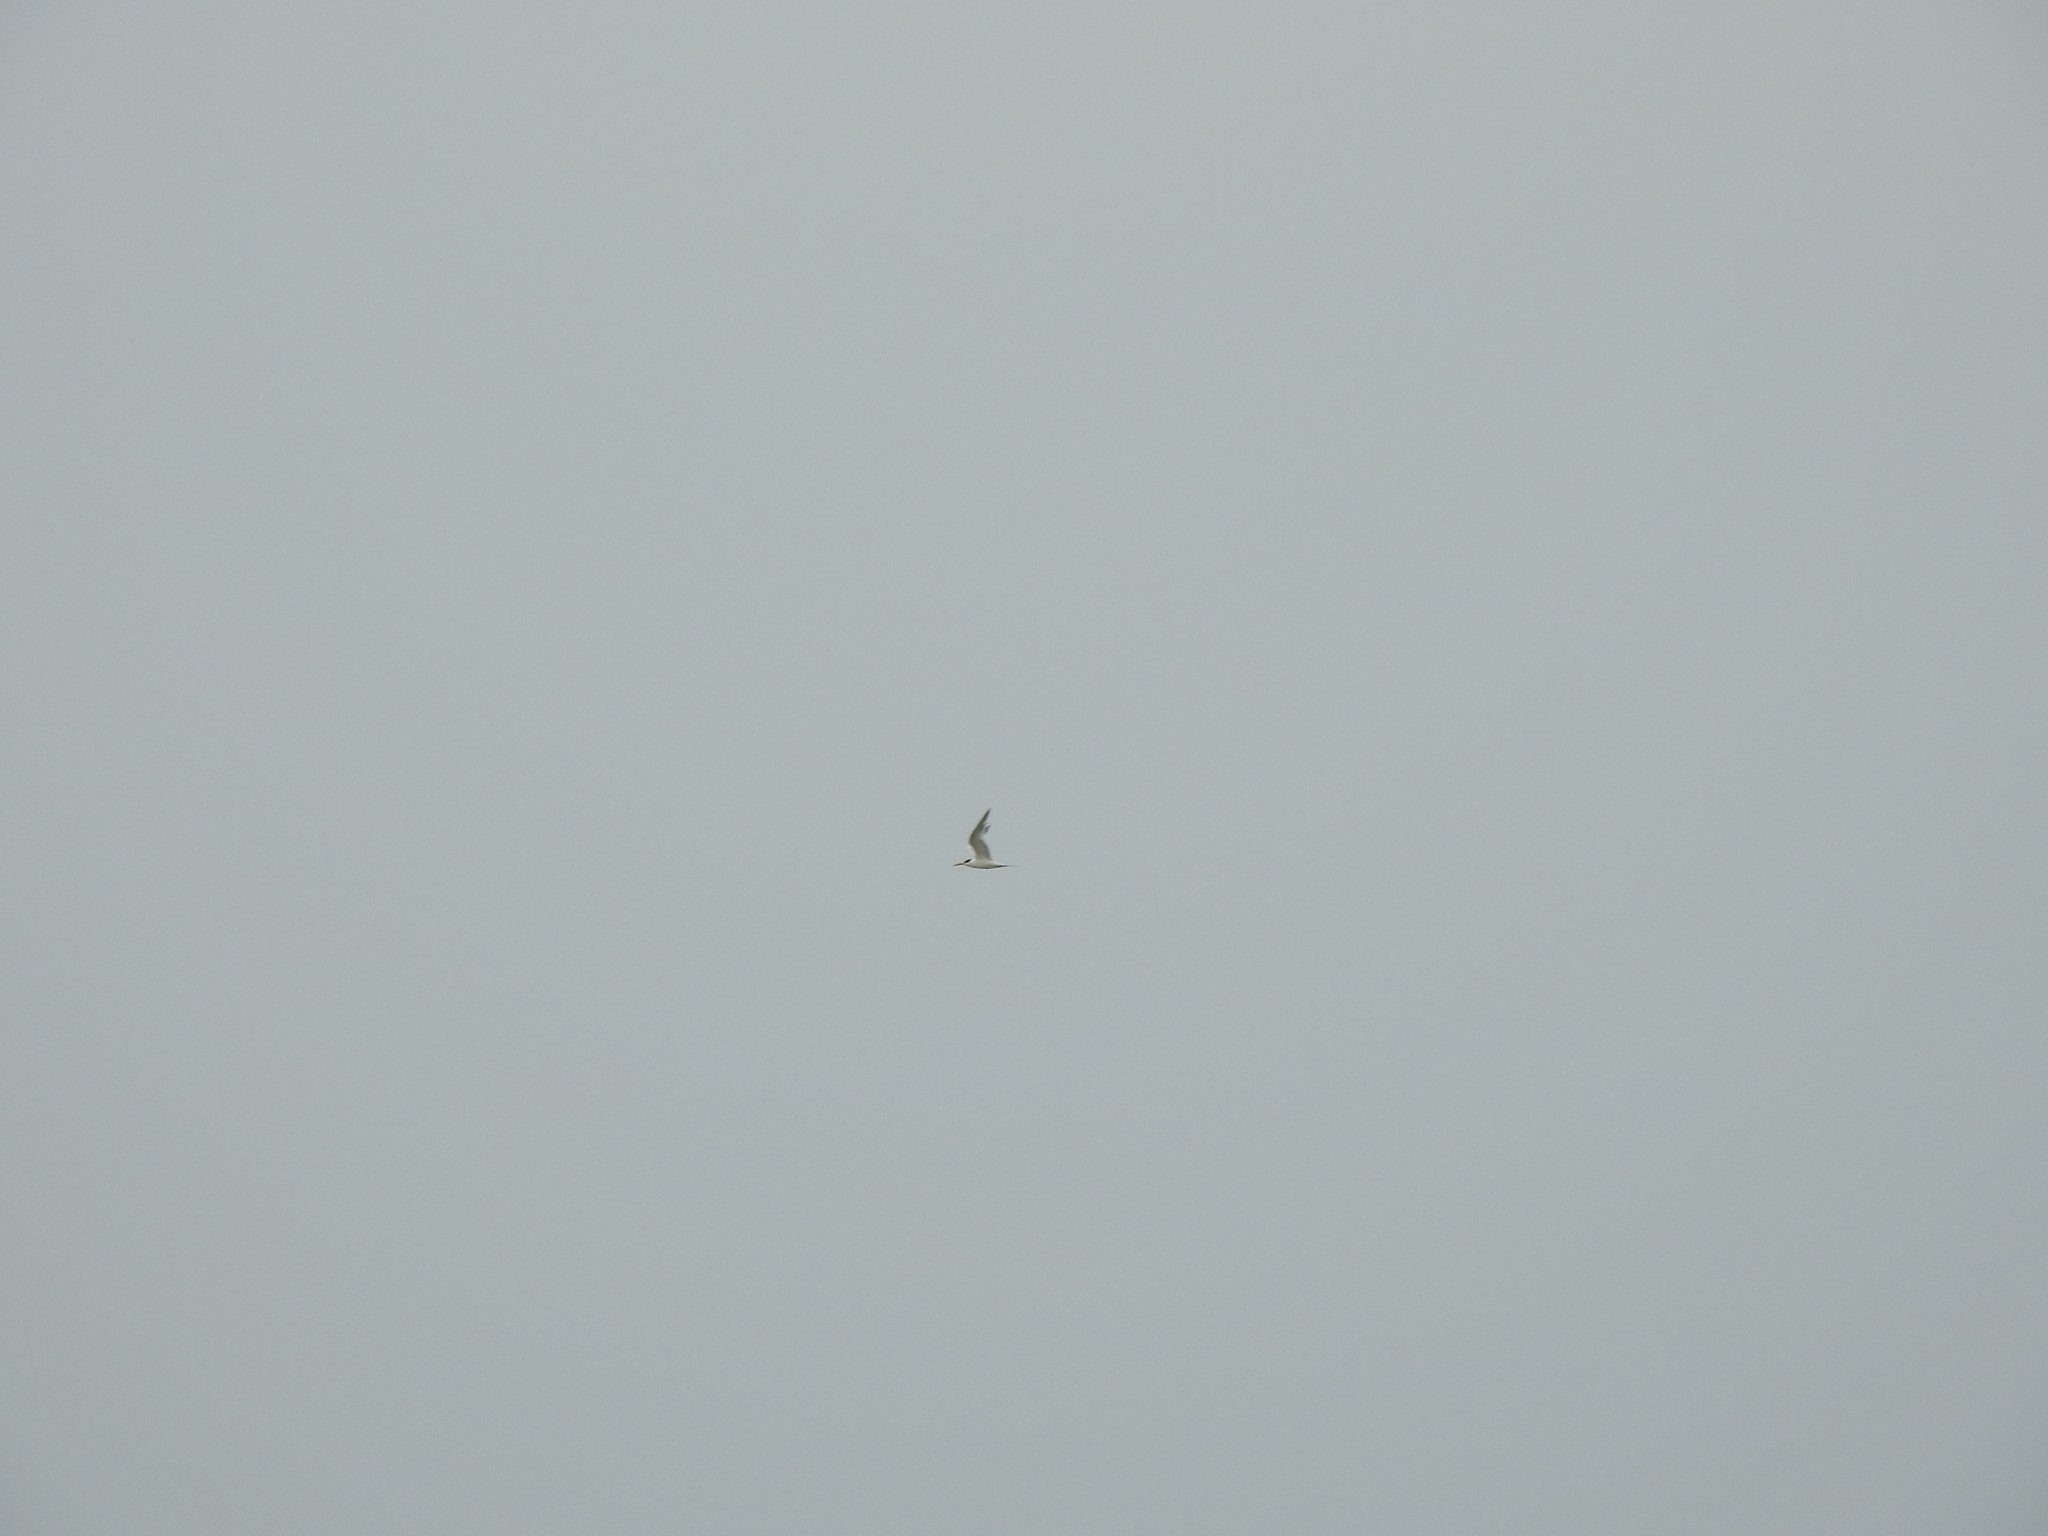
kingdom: Animalia
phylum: Chordata
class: Aves
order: Charadriiformes
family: Laridae
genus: Thalasseus
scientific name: Thalasseus elegans
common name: Elegant tern
